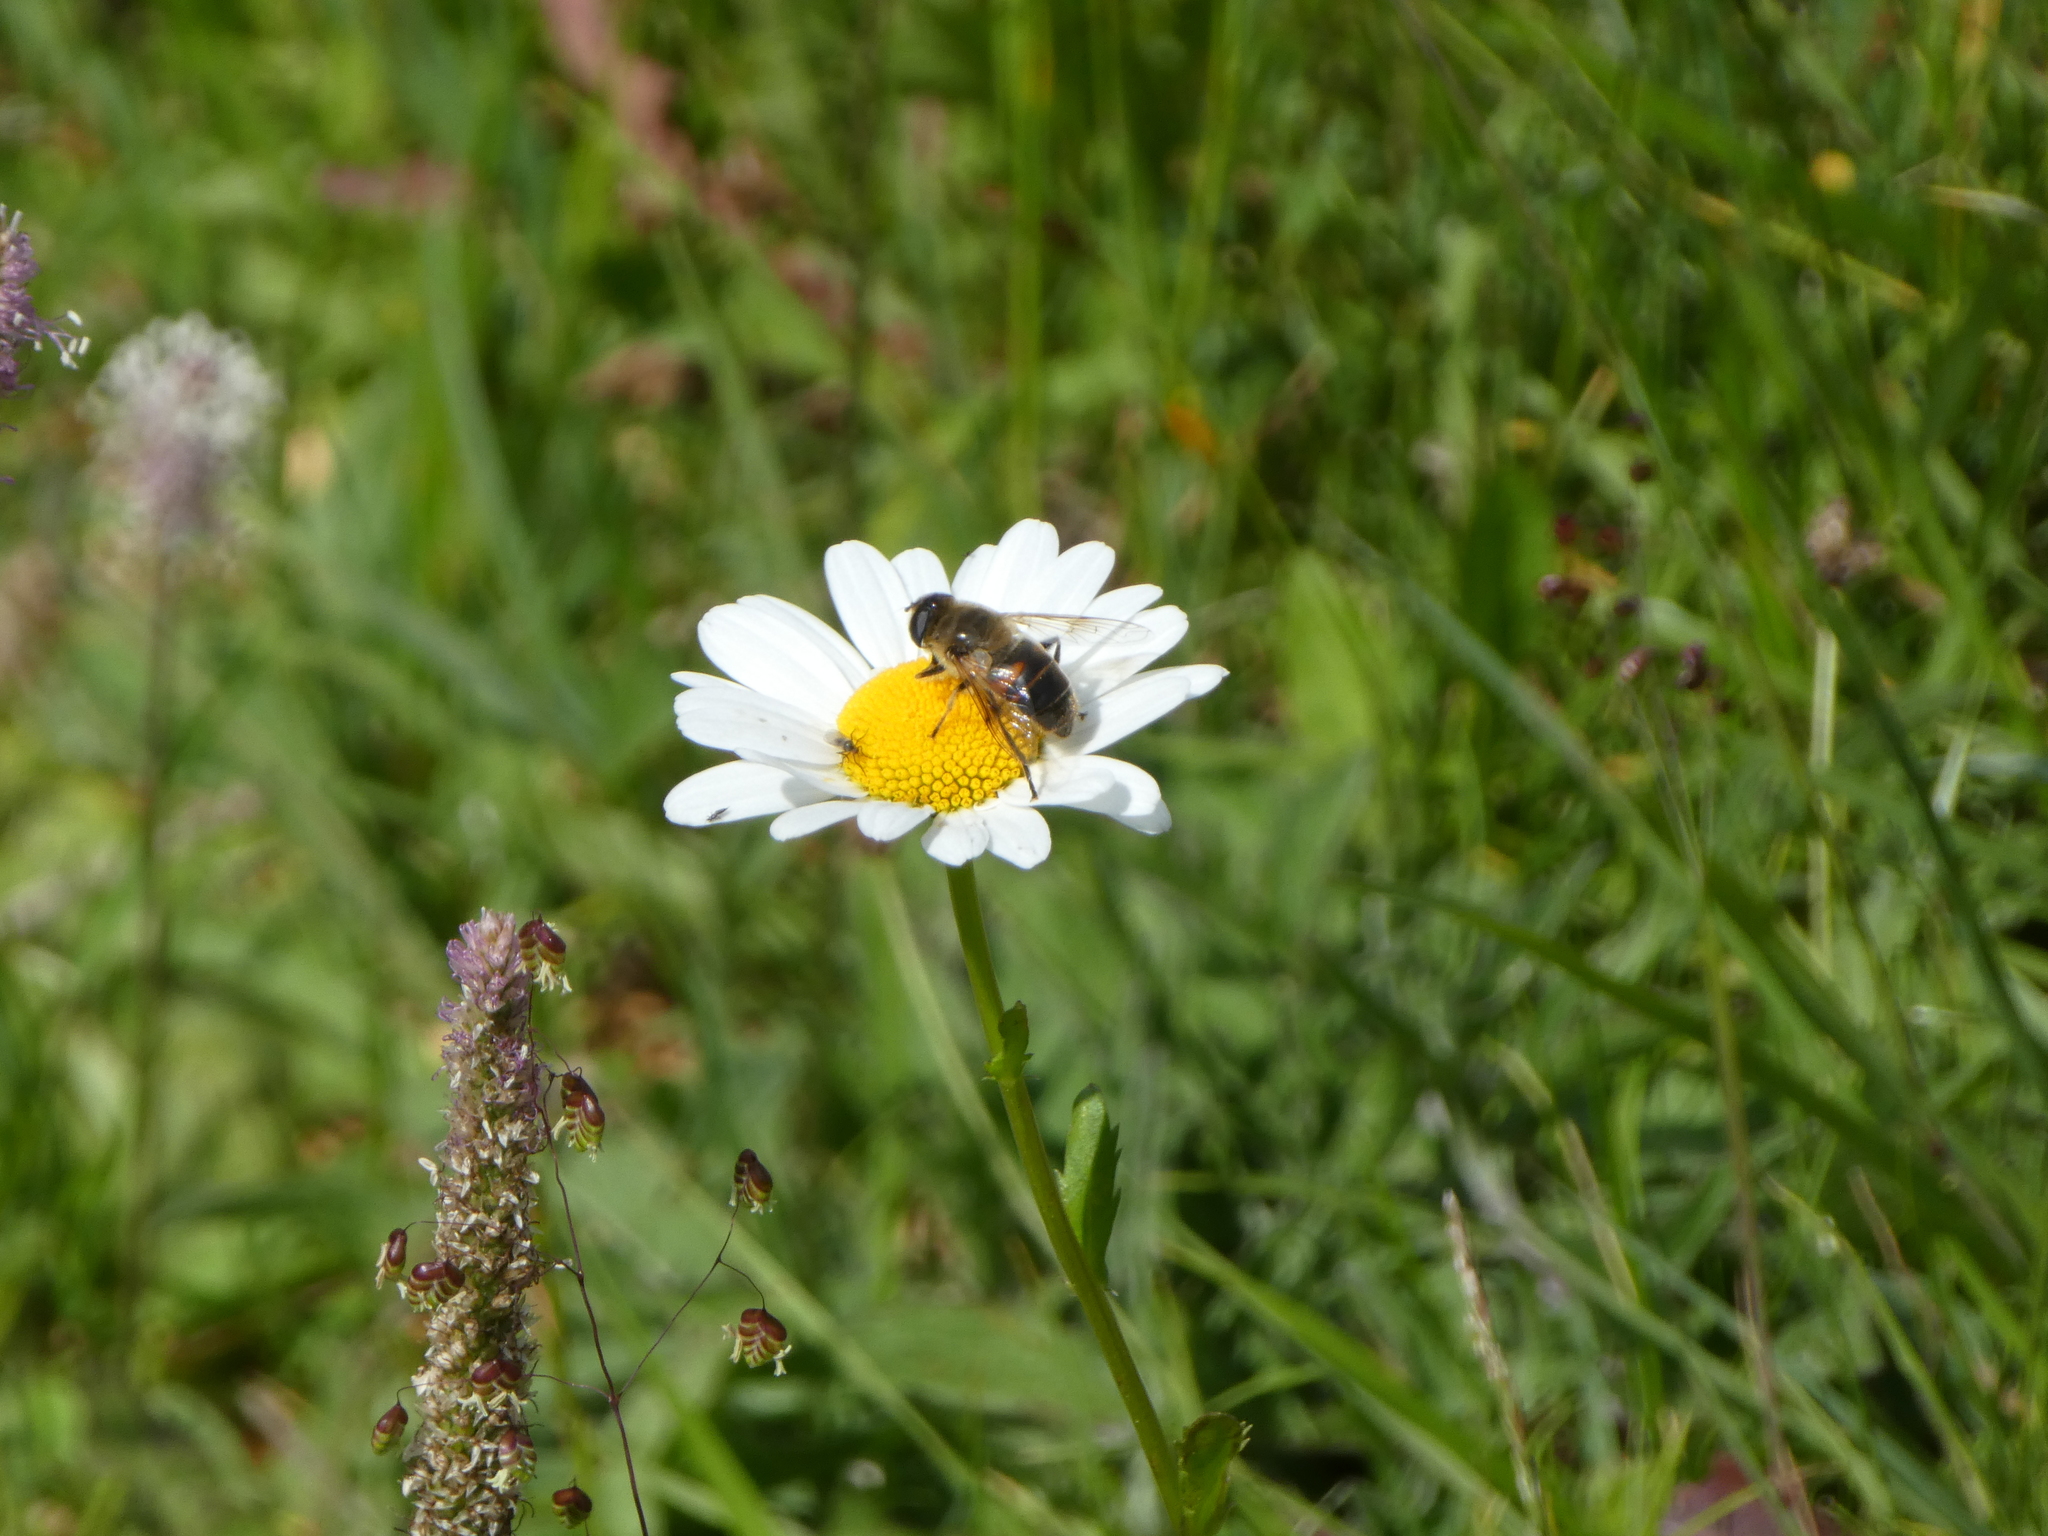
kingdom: Animalia
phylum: Arthropoda
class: Insecta
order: Diptera
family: Syrphidae
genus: Eristalis
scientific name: Eristalis tenax
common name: Drone fly
